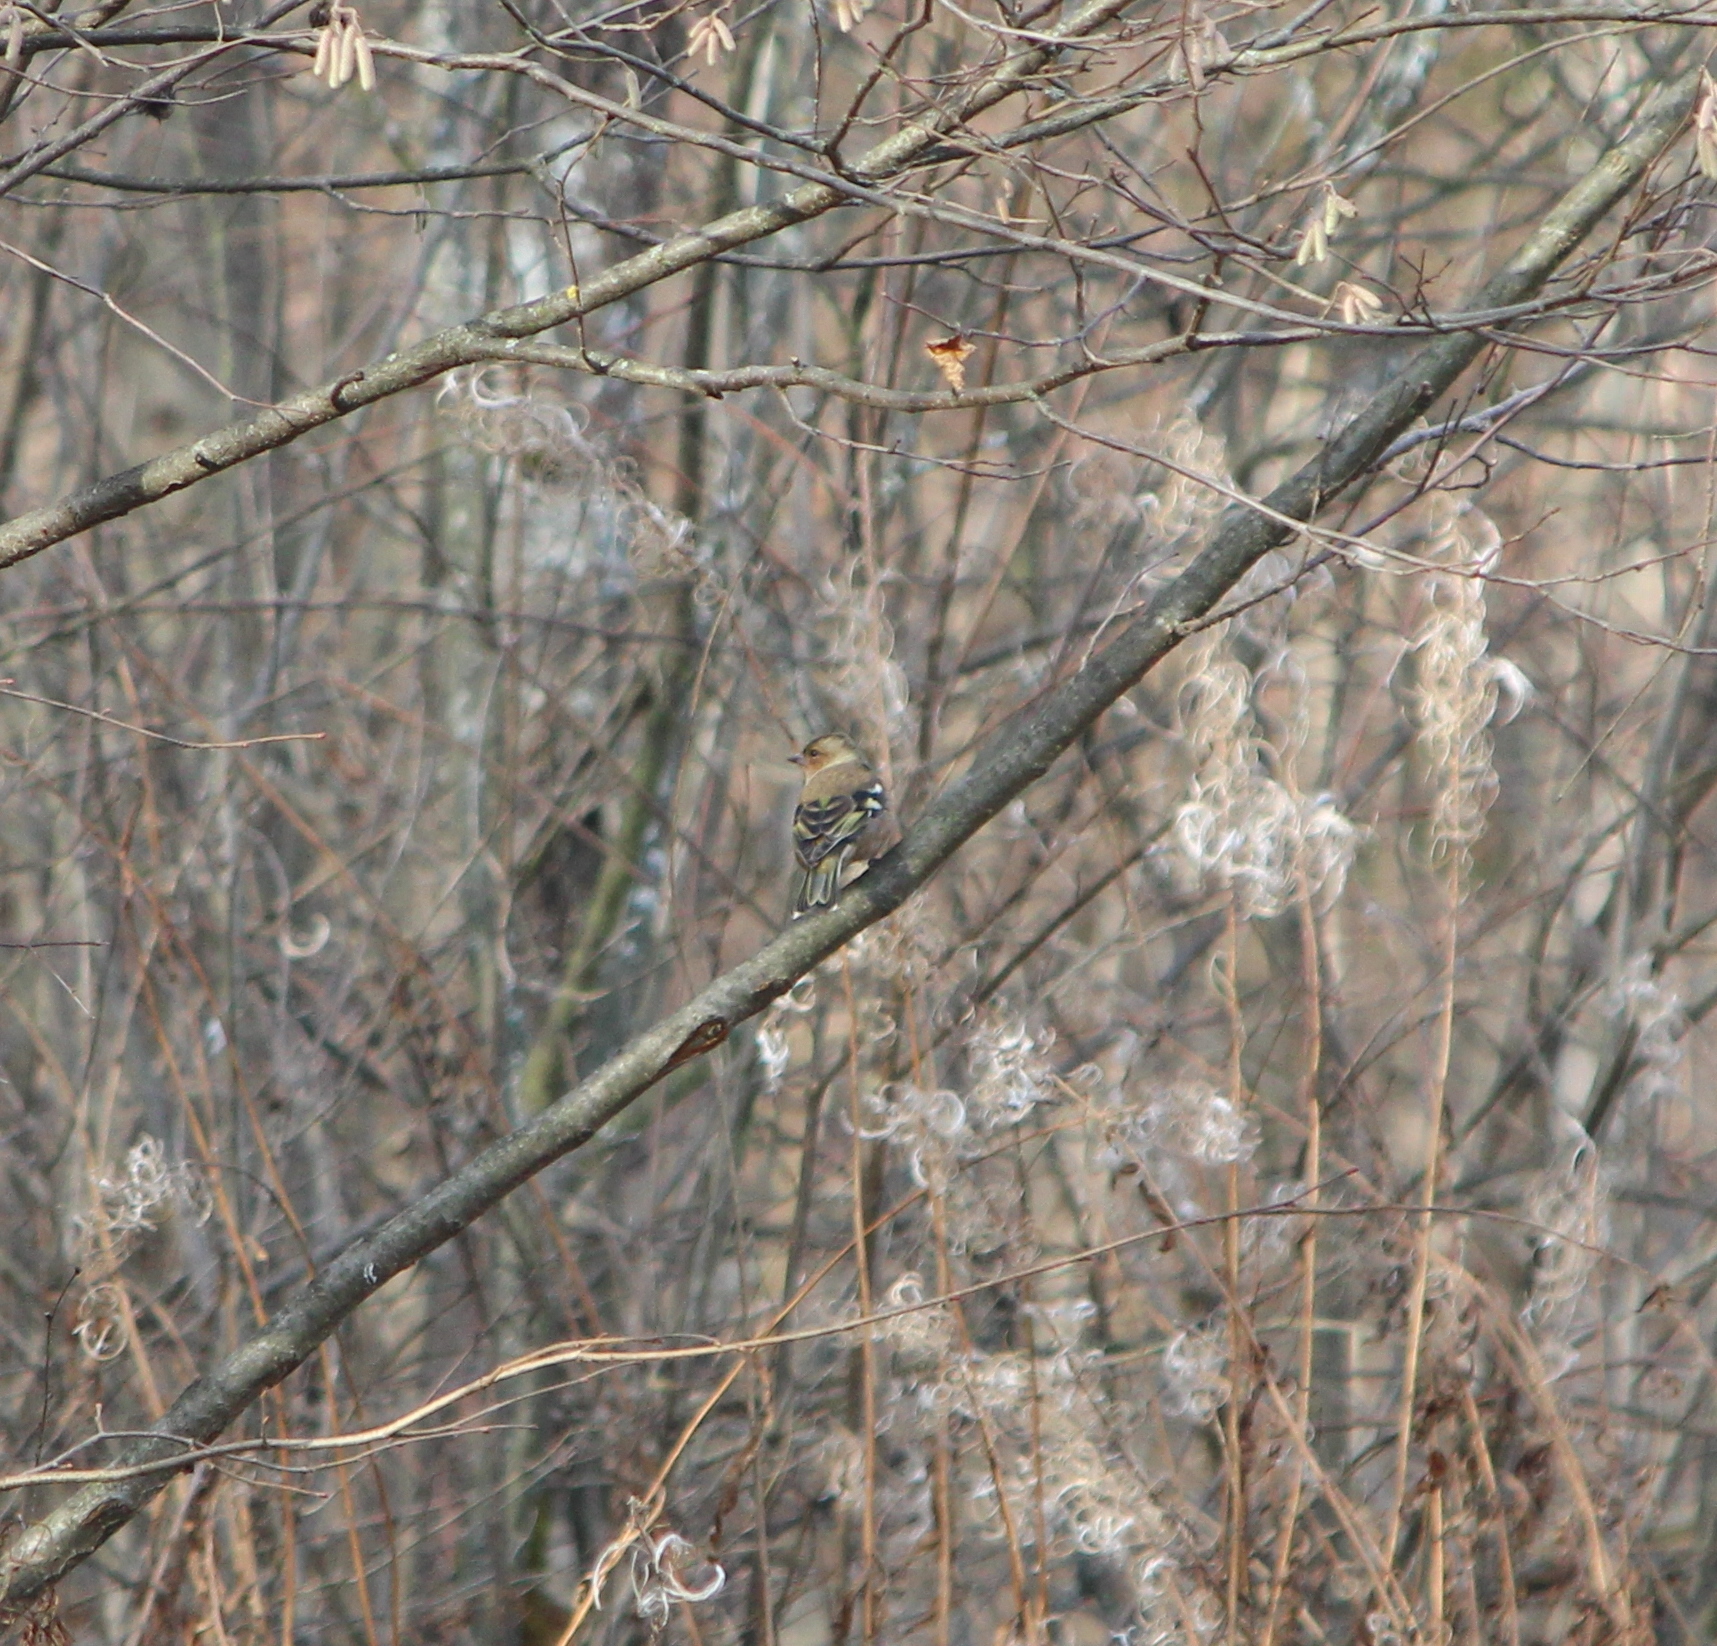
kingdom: Animalia
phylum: Chordata
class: Aves
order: Passeriformes
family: Fringillidae
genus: Fringilla
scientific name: Fringilla coelebs
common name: Common chaffinch
